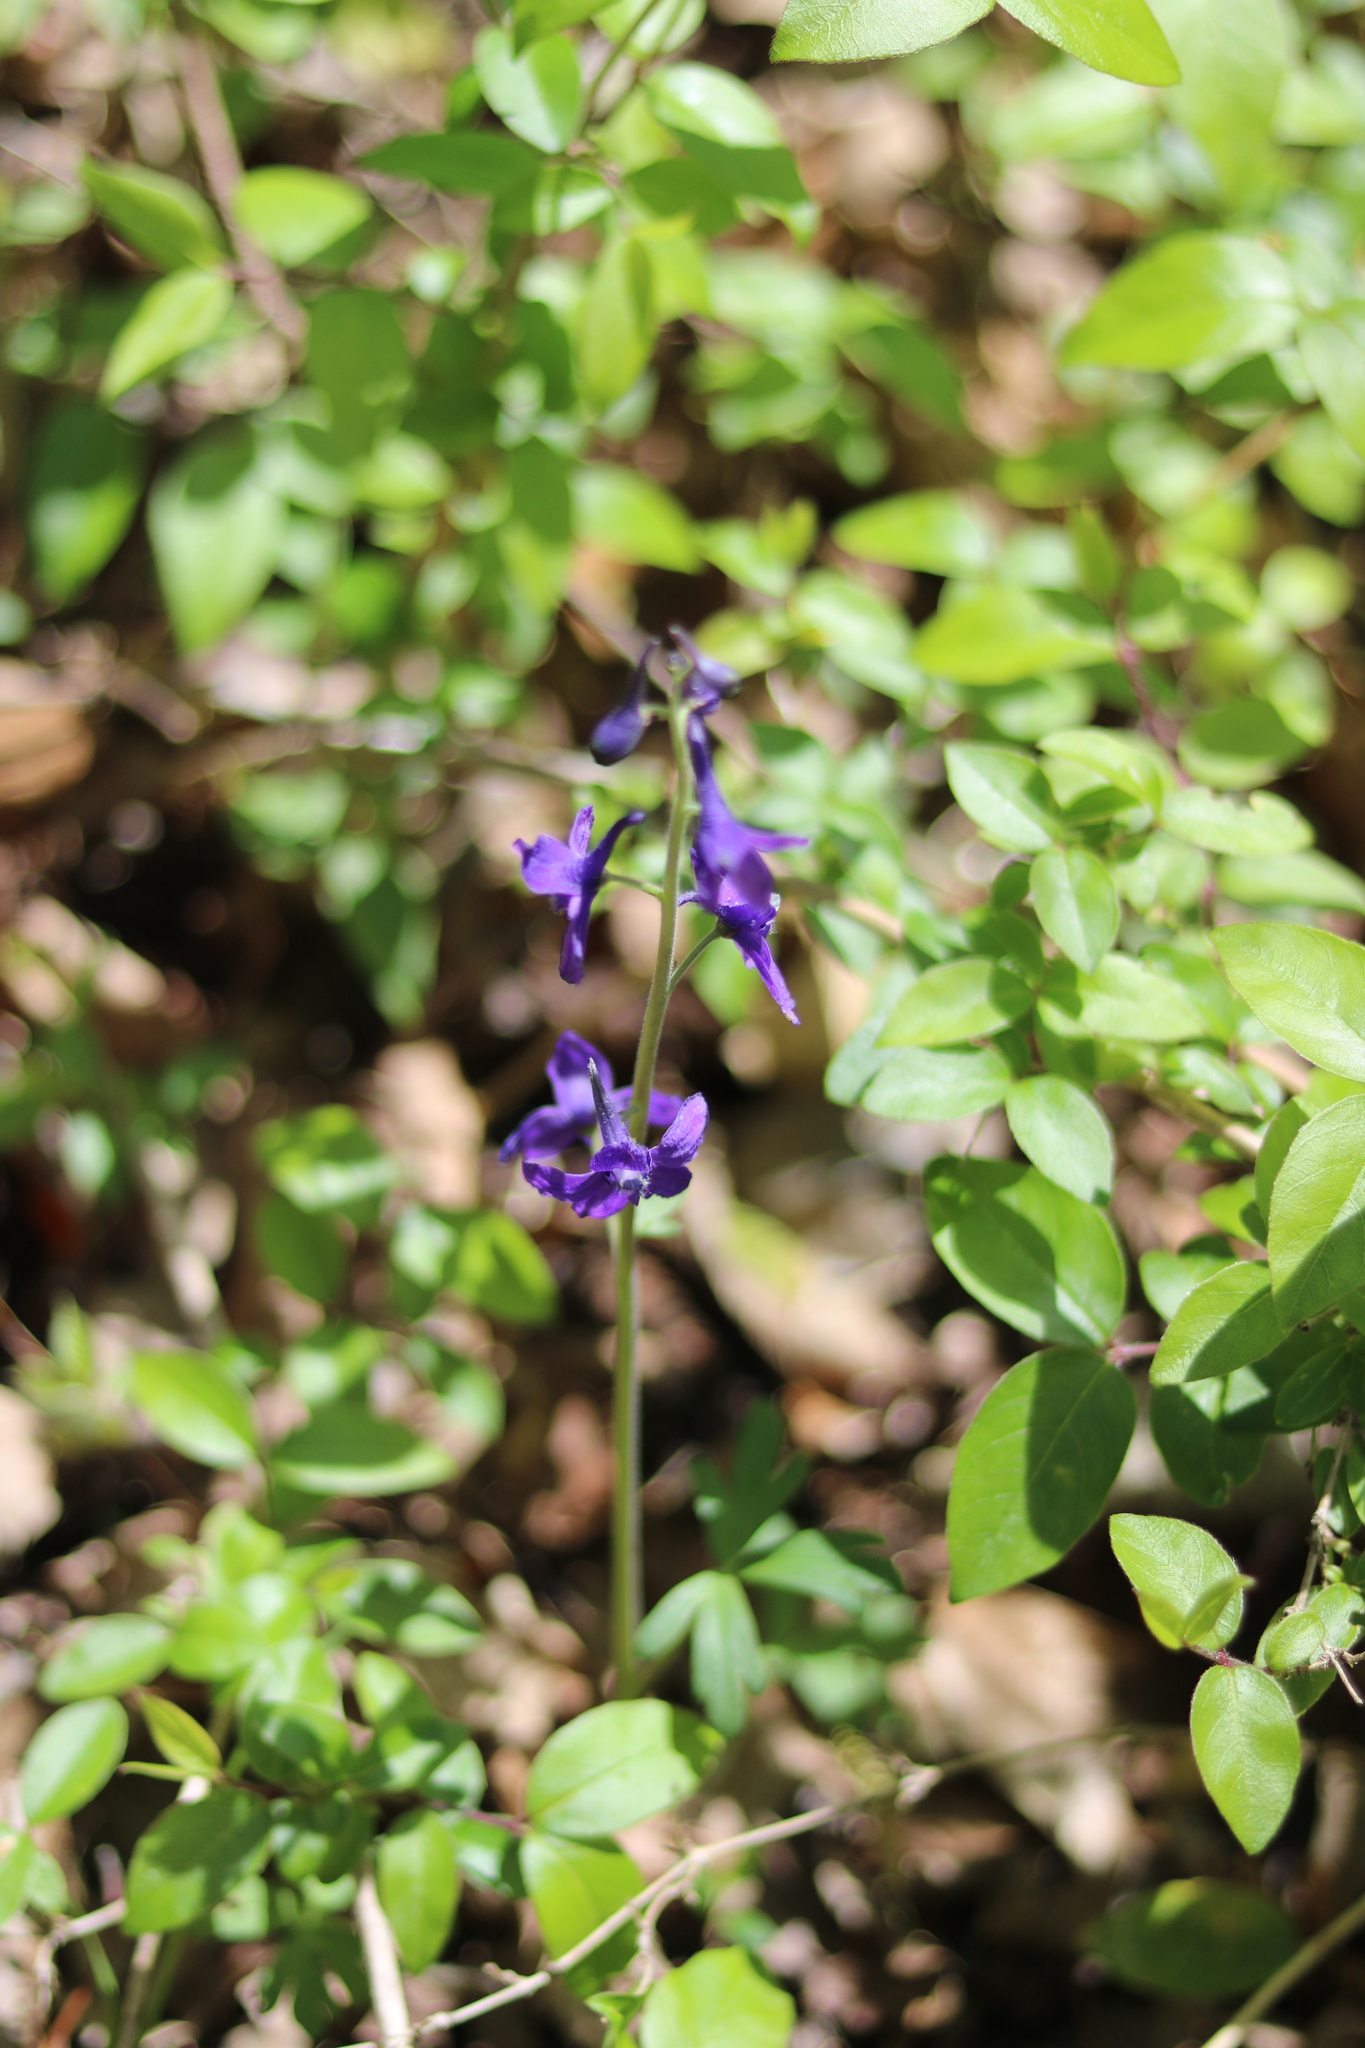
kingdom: Plantae
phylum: Tracheophyta
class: Magnoliopsida
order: Ranunculales
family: Ranunculaceae
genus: Delphinium
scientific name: Delphinium tricorne
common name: Dwarf larkspur
